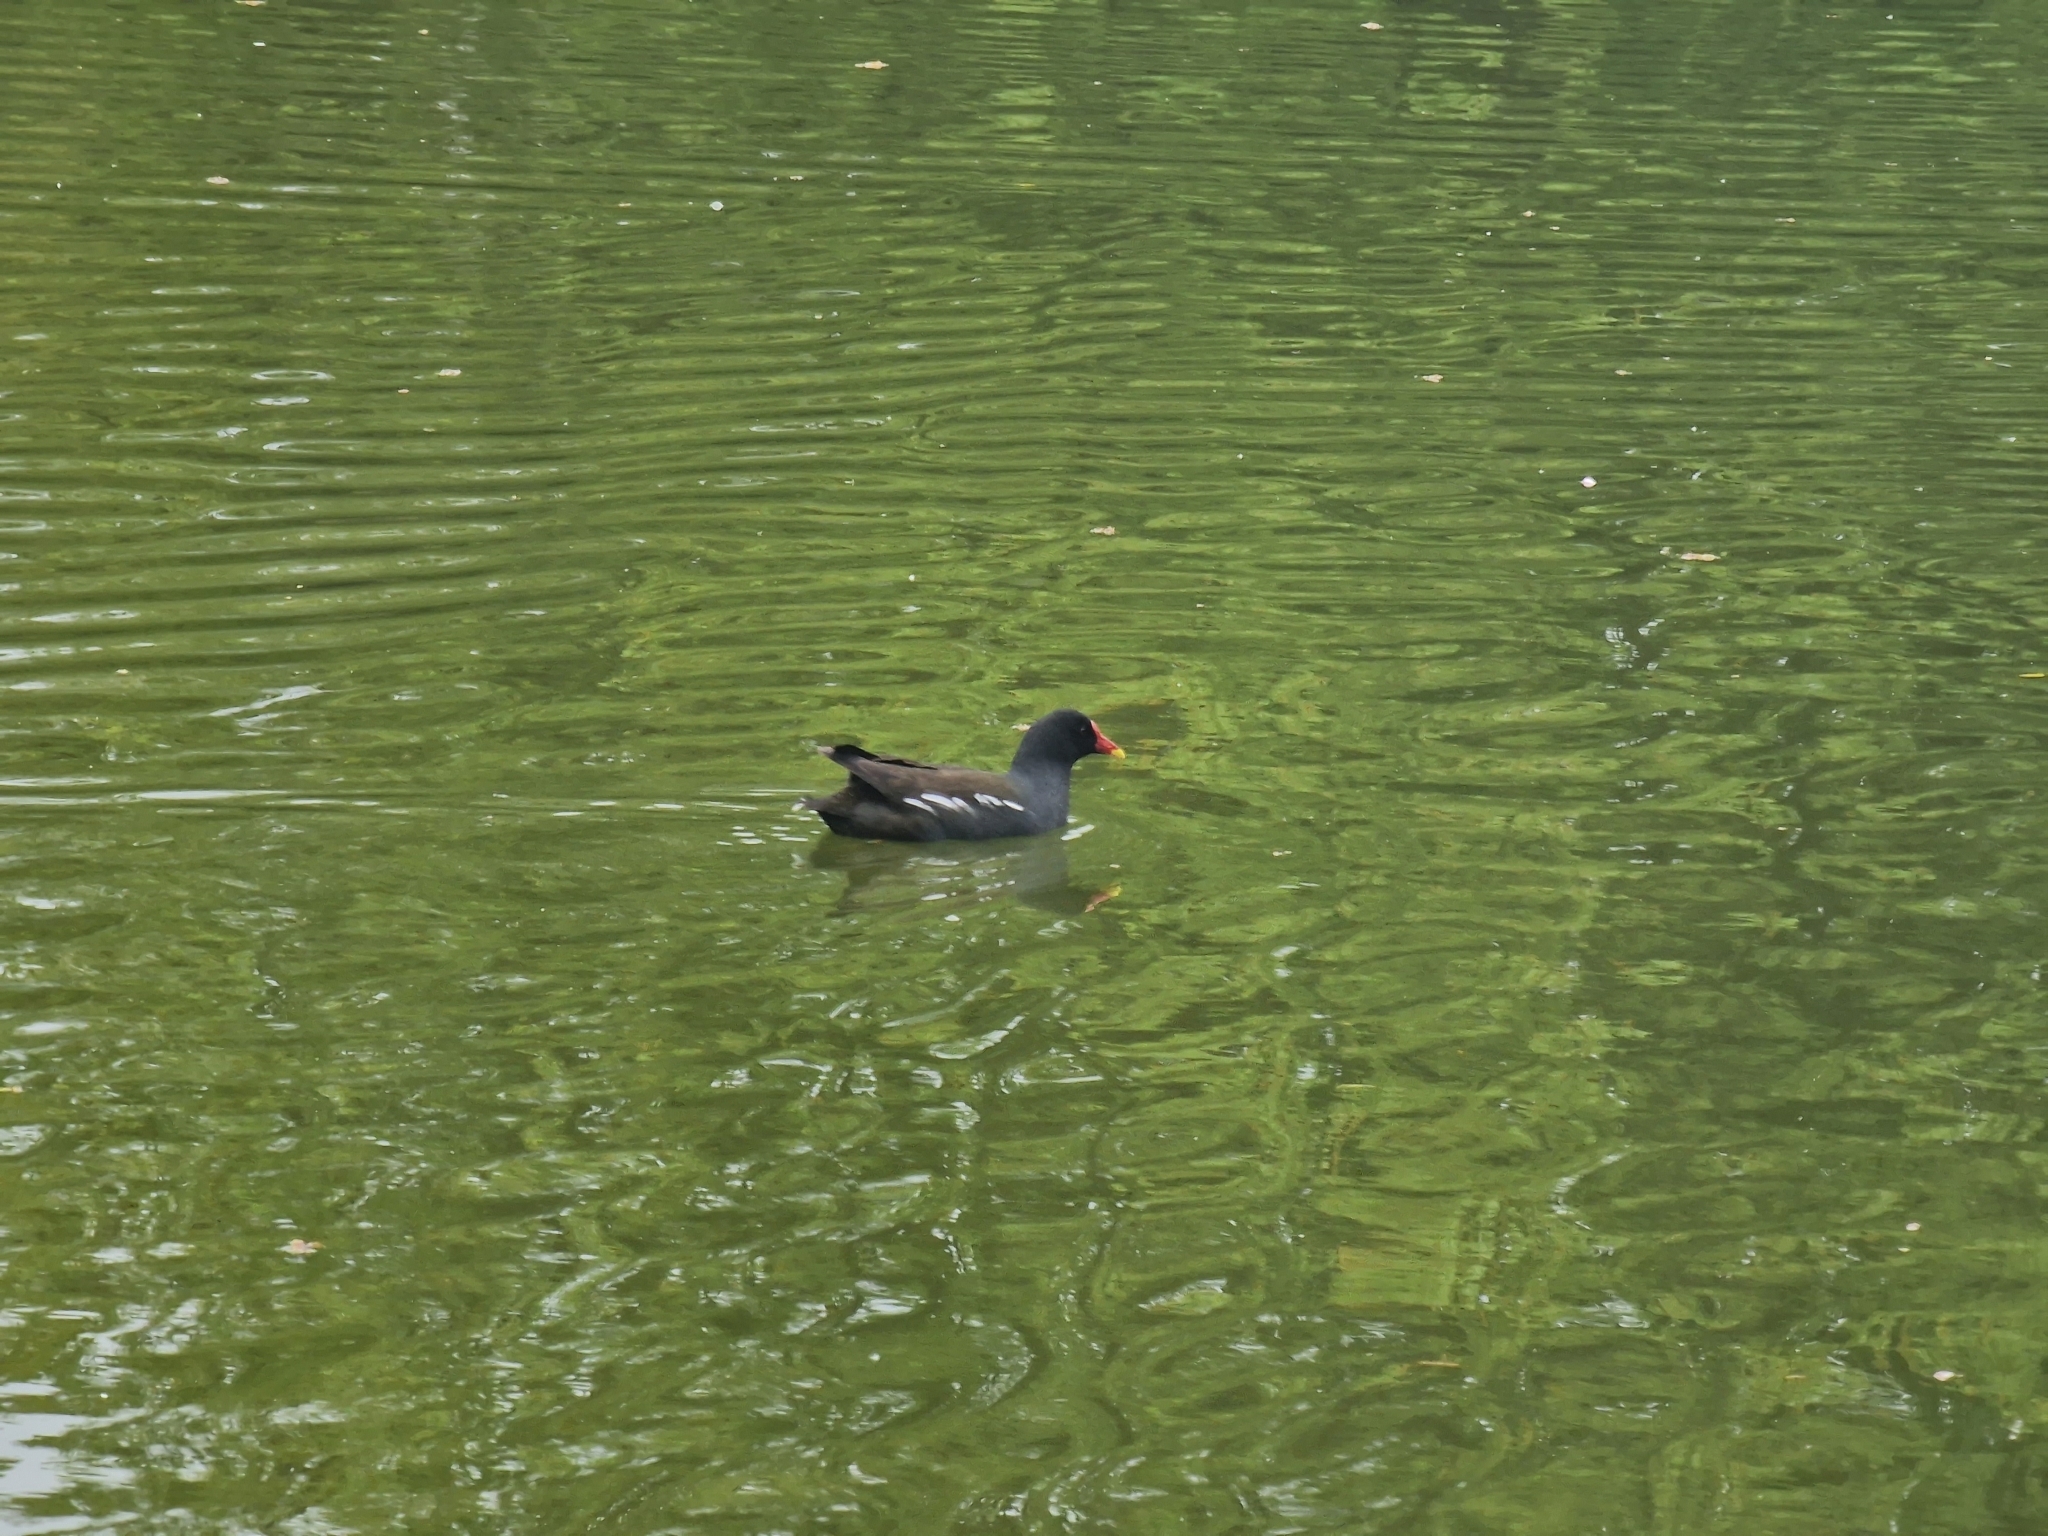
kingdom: Animalia
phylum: Chordata
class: Aves
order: Gruiformes
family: Rallidae
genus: Gallinula
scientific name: Gallinula chloropus
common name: Common moorhen
